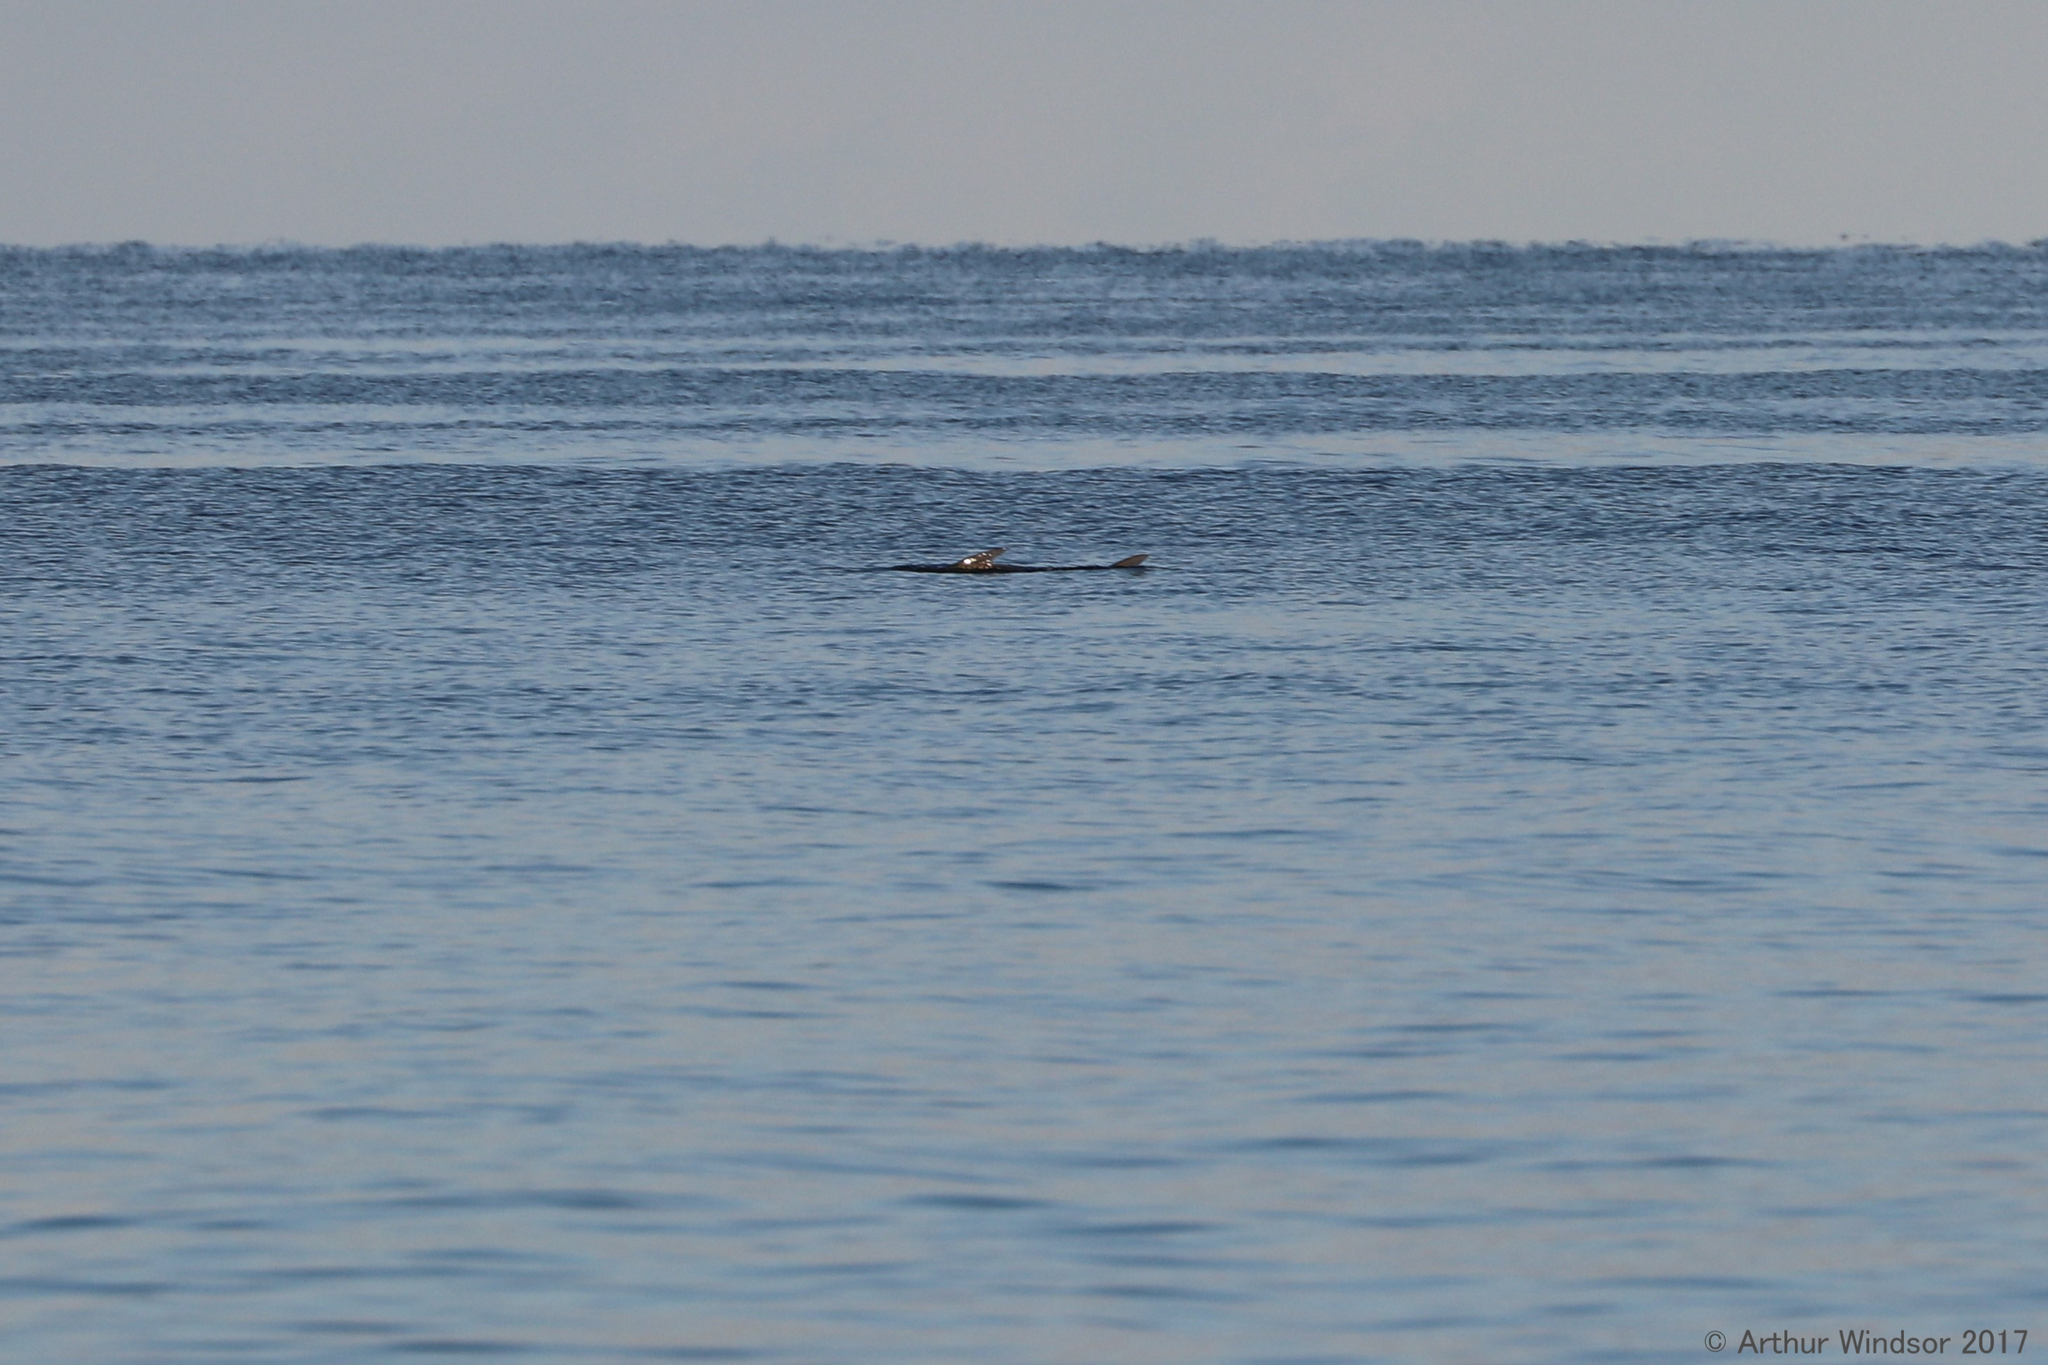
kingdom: Animalia
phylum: Chordata
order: Elopiformes
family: Megalopidae
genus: Megalops
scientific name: Megalops atlanticus
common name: Tarpon
